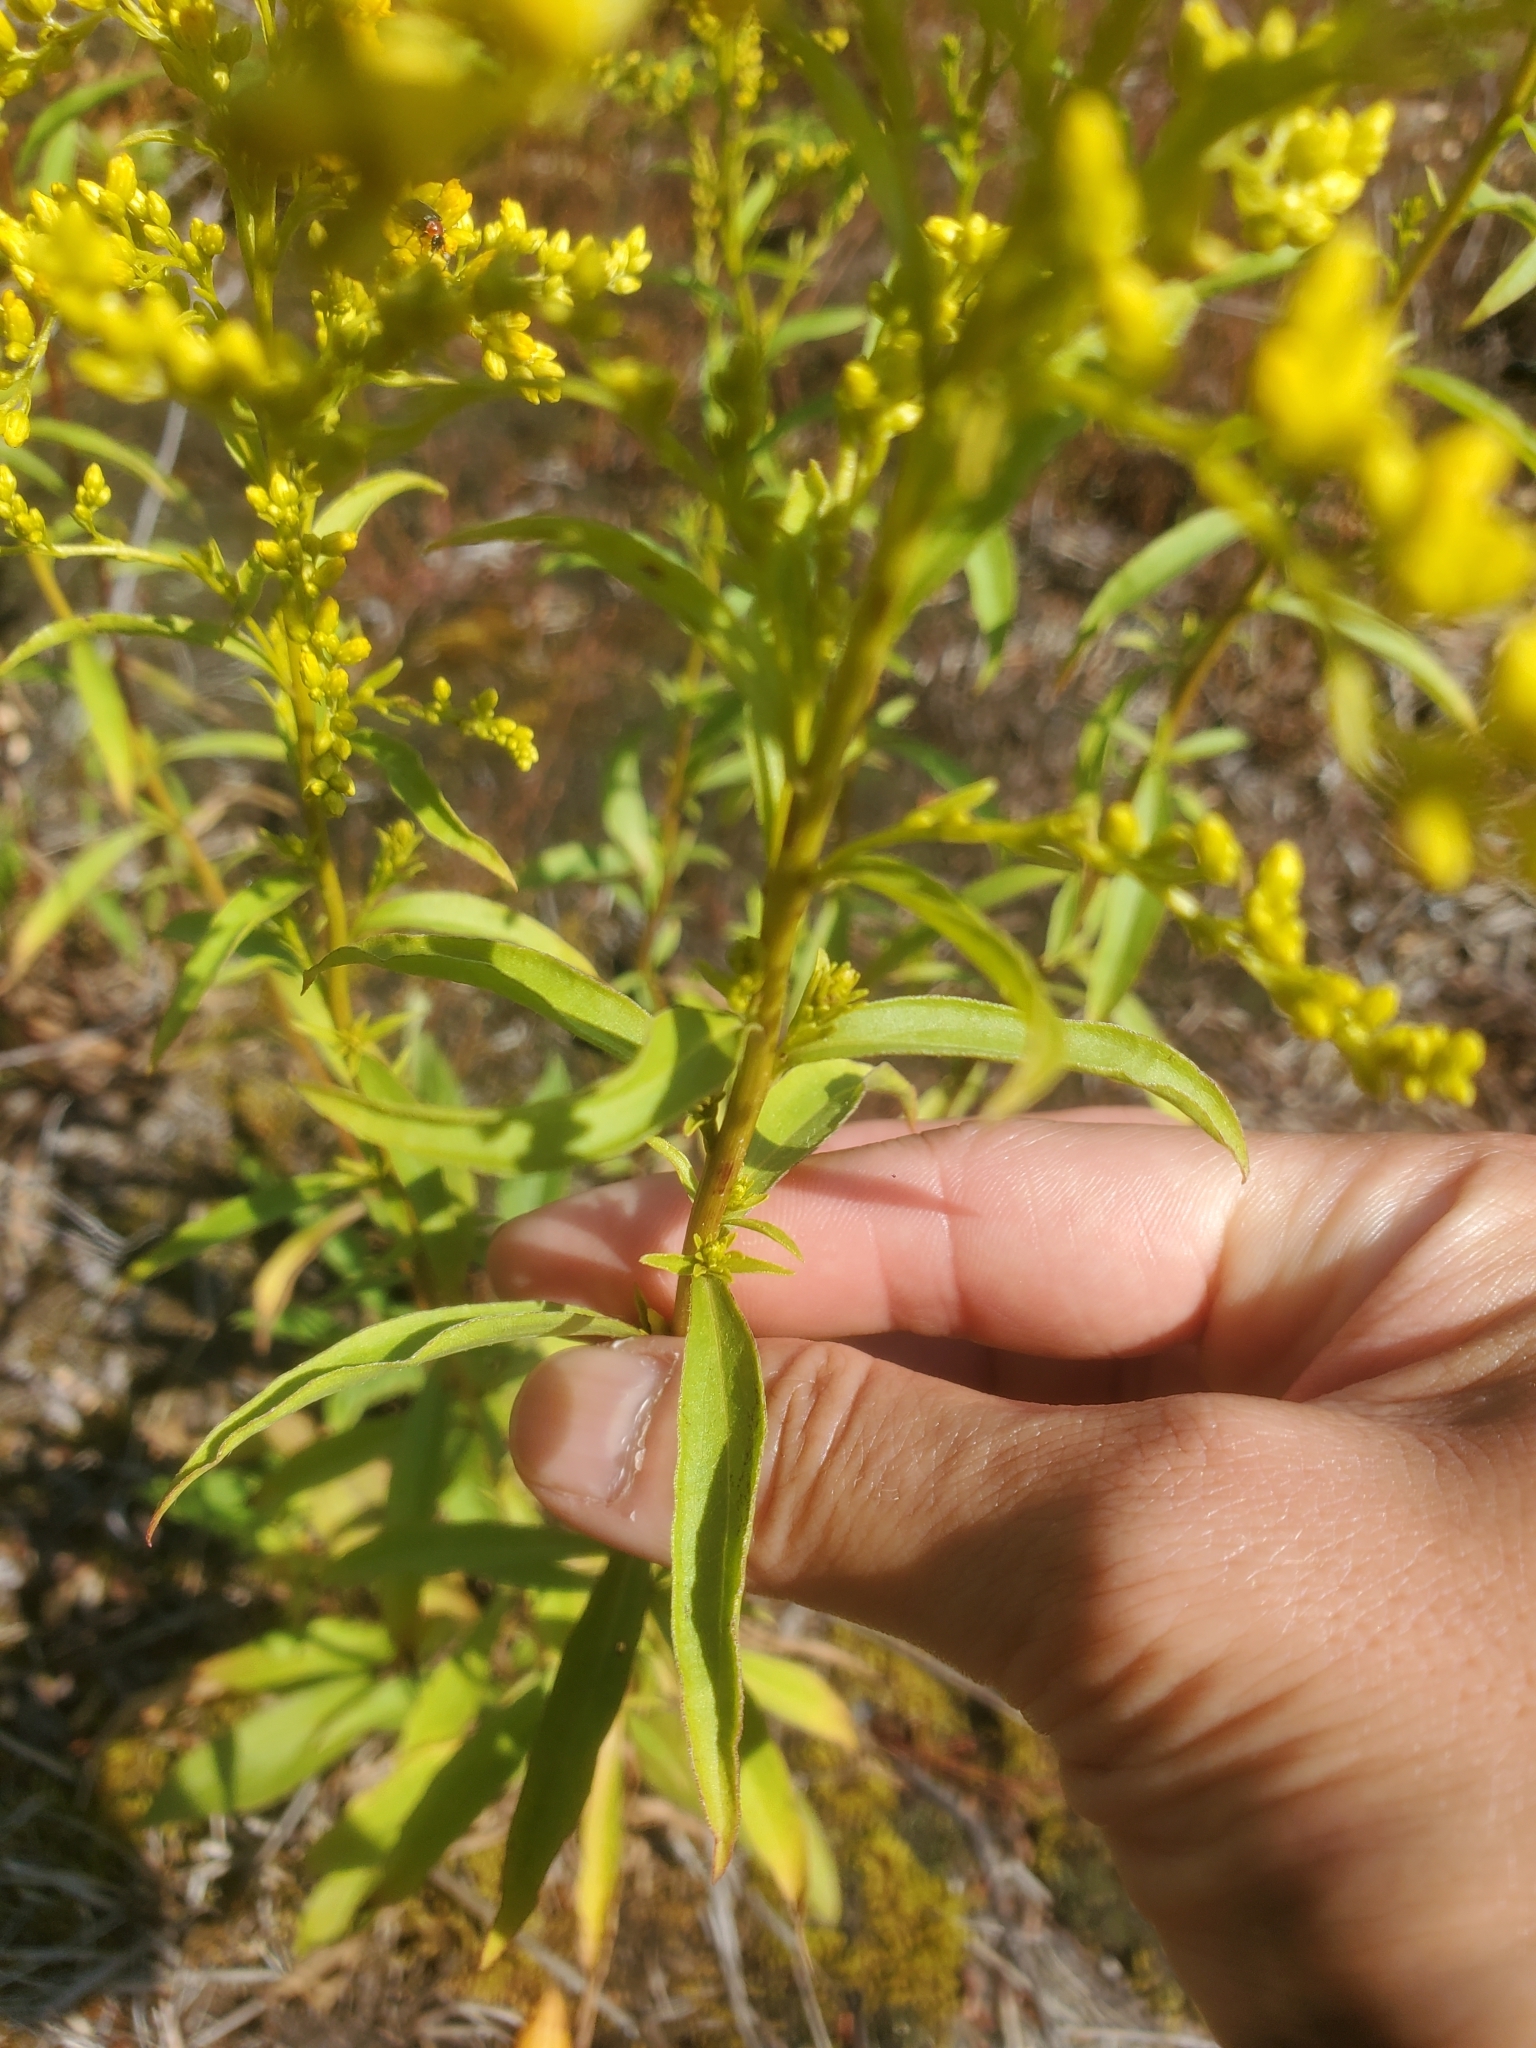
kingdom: Plantae
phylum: Tracheophyta
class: Magnoliopsida
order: Asterales
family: Asteraceae
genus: Solidago
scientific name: Solidago juncea
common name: Early goldenrod
